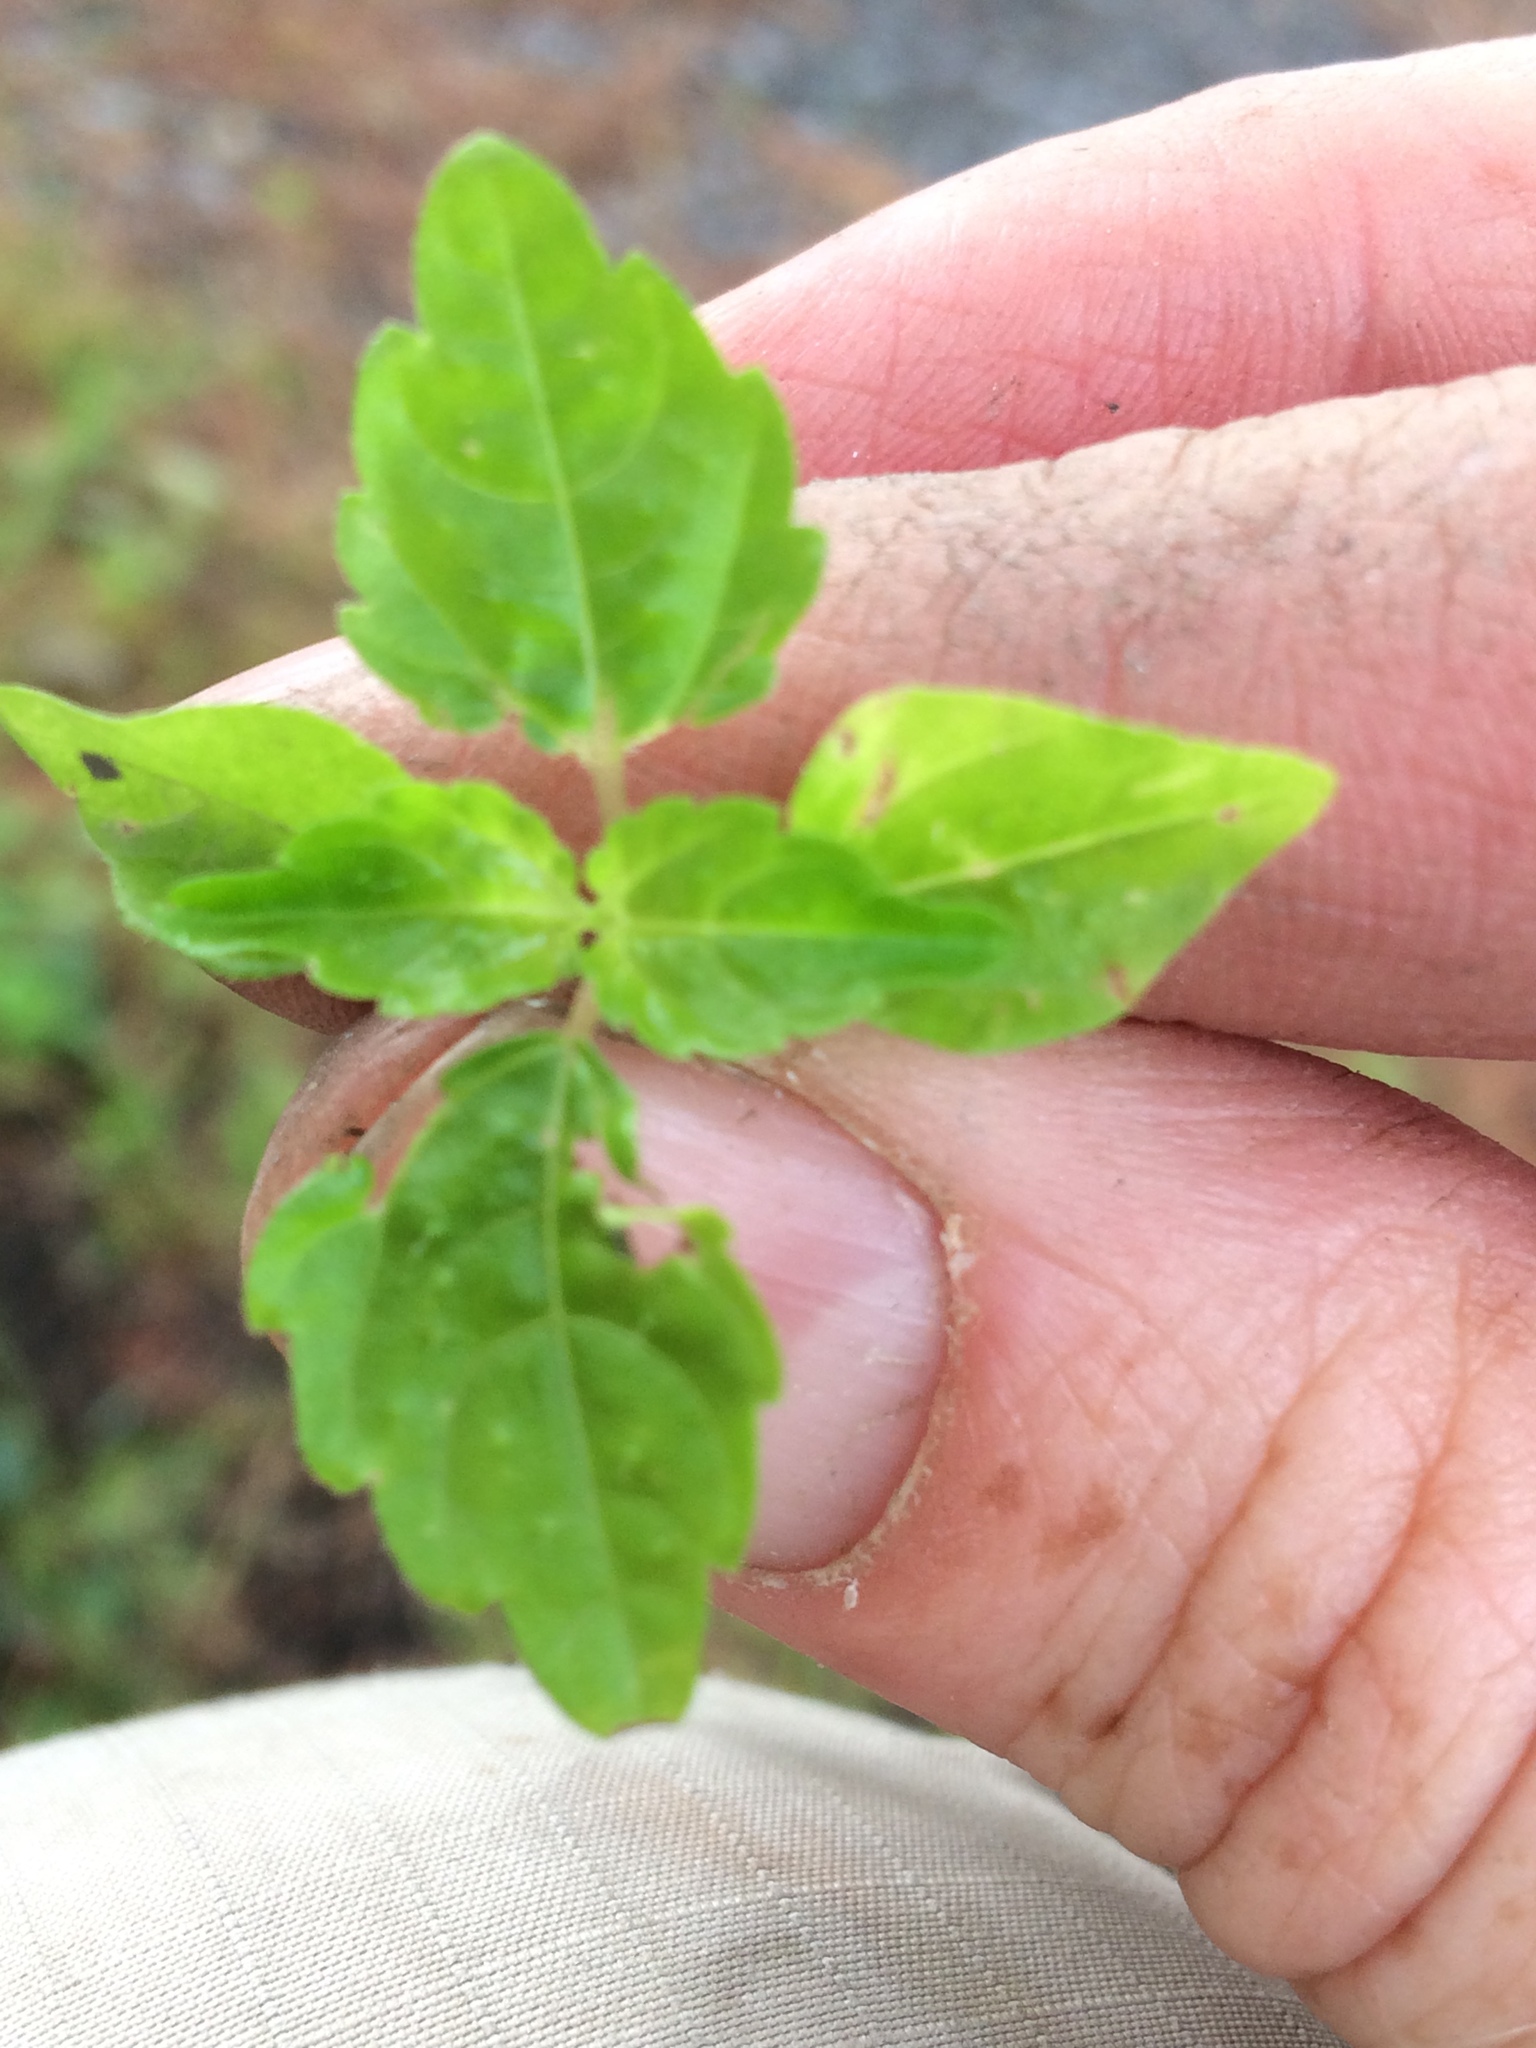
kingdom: Plantae
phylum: Tracheophyta
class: Magnoliopsida
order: Rosales
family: Urticaceae
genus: Pilea
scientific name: Pilea pumila
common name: Clearweed
